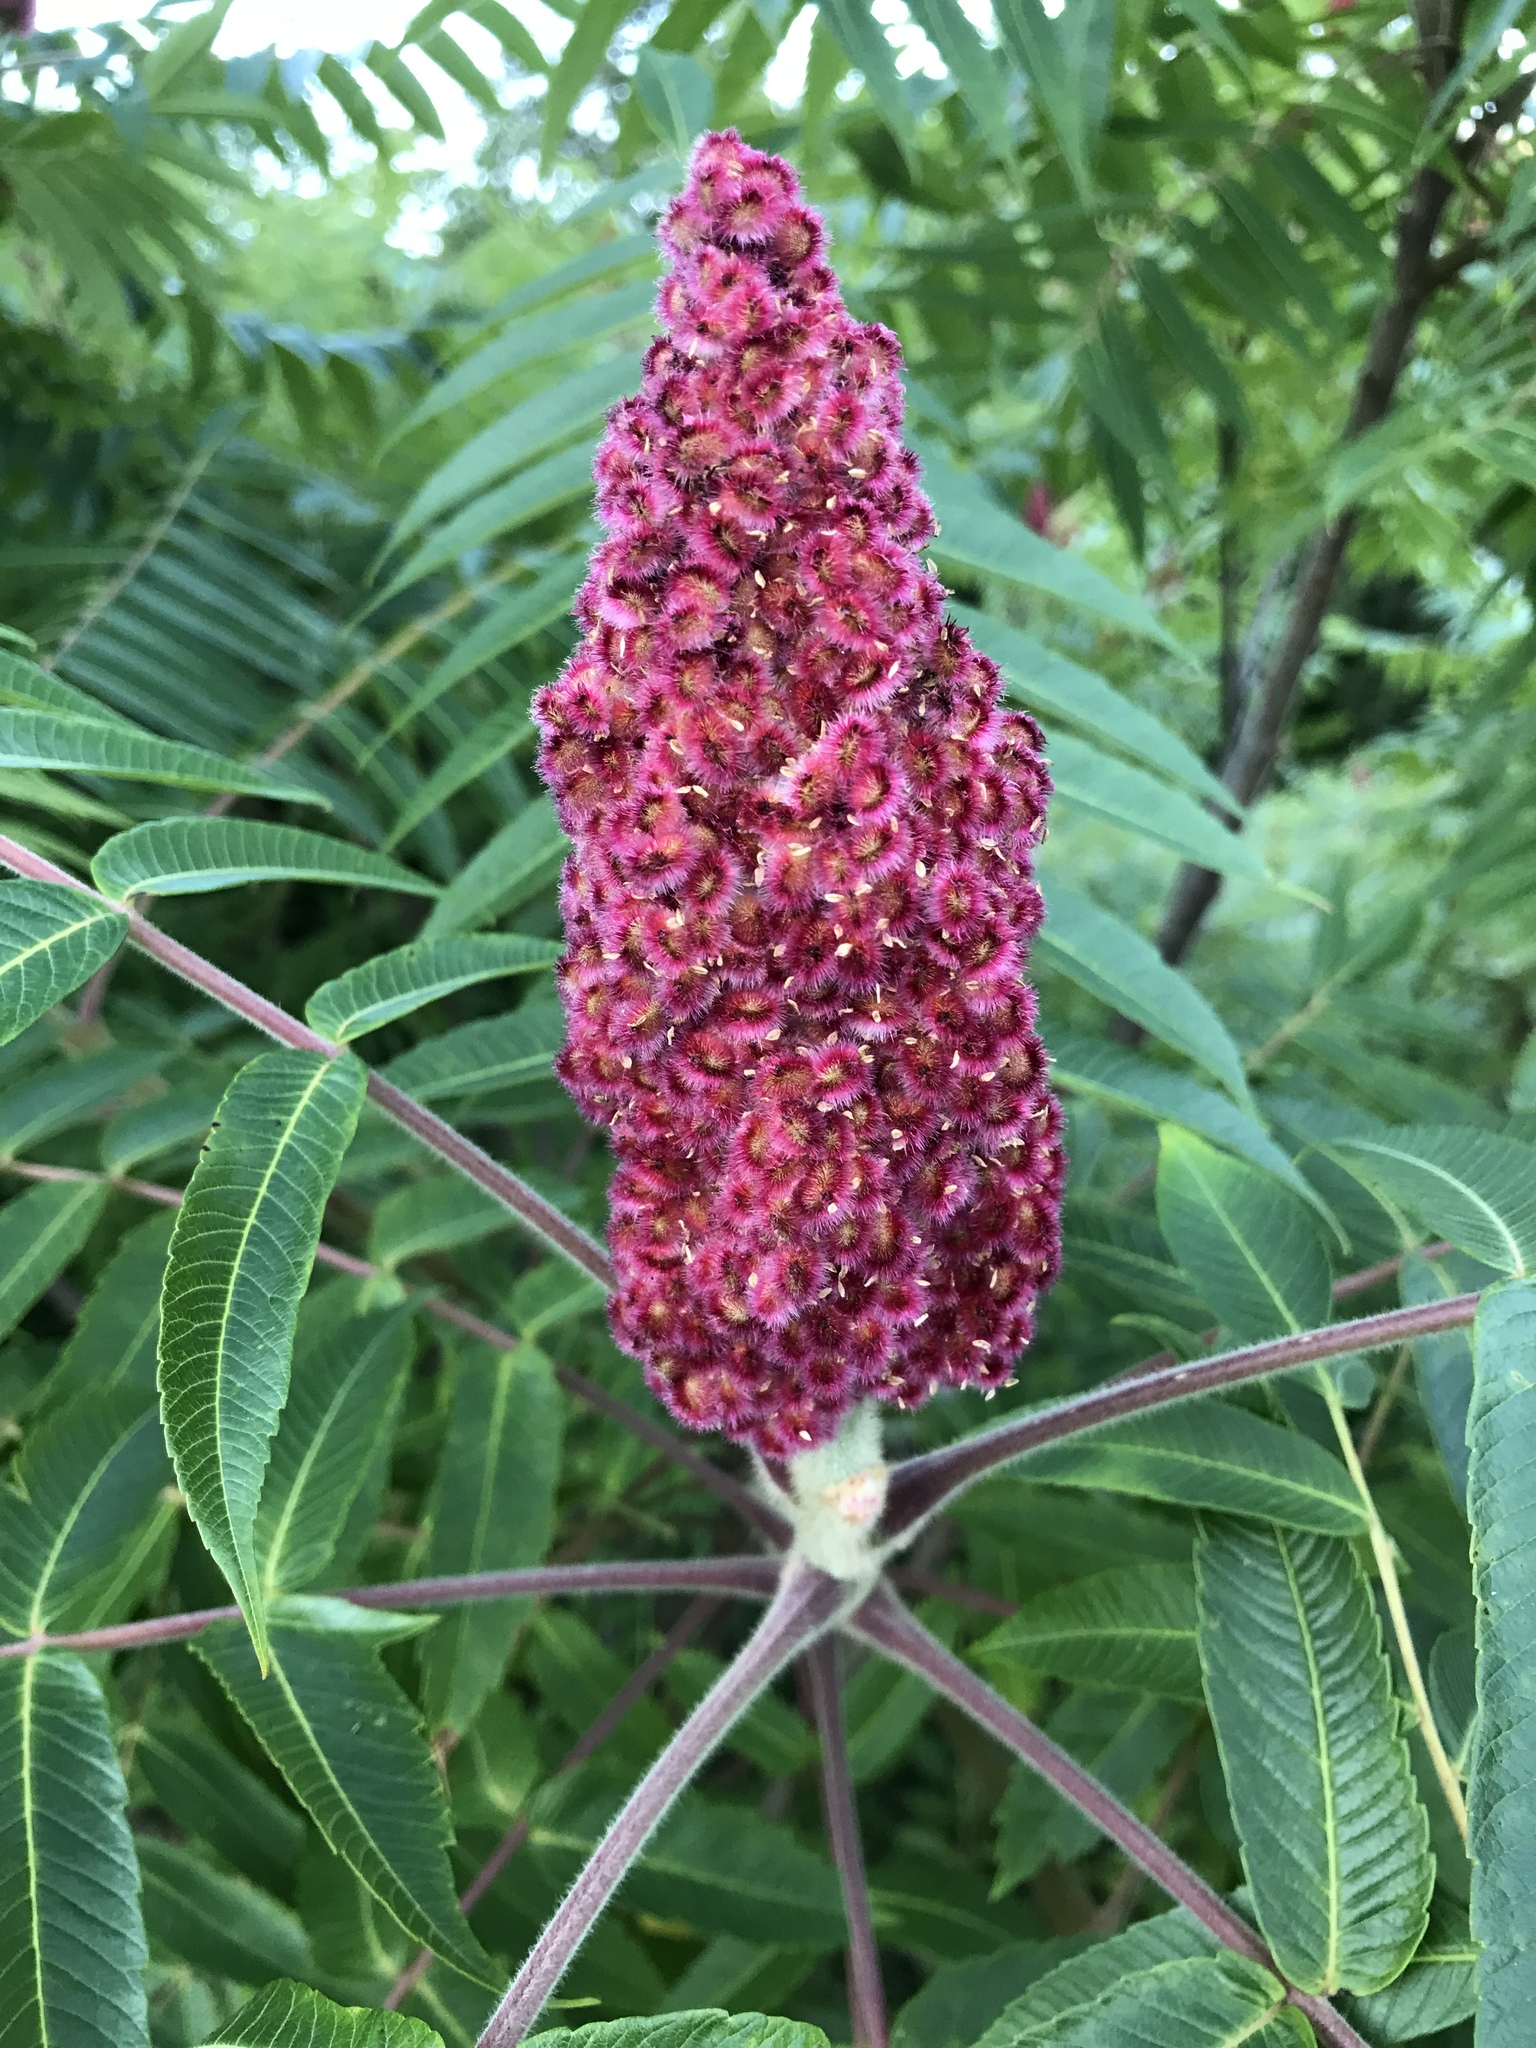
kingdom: Plantae
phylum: Tracheophyta
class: Magnoliopsida
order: Sapindales
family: Anacardiaceae
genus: Rhus
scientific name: Rhus typhina
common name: Staghorn sumac
